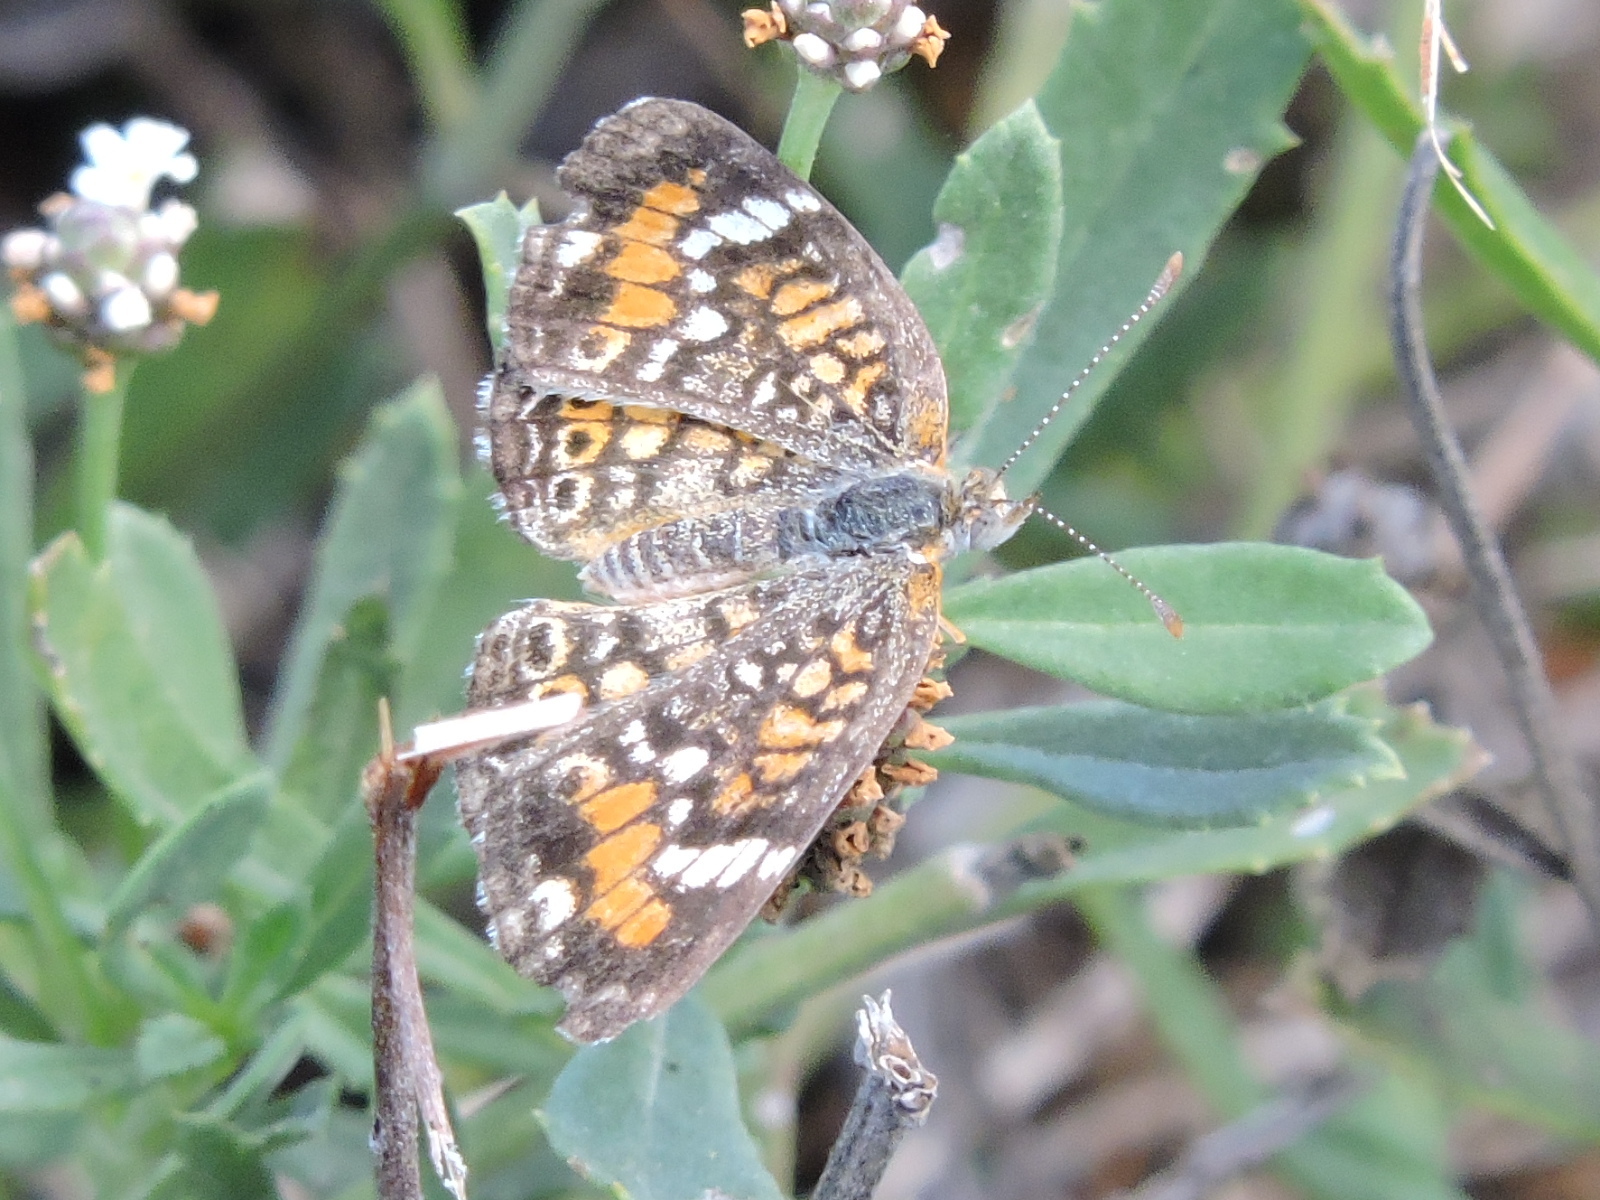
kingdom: Animalia
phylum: Arthropoda
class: Insecta
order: Lepidoptera
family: Nymphalidae
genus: Phyciodes
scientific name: Phyciodes phaon
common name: Phaon crescent
